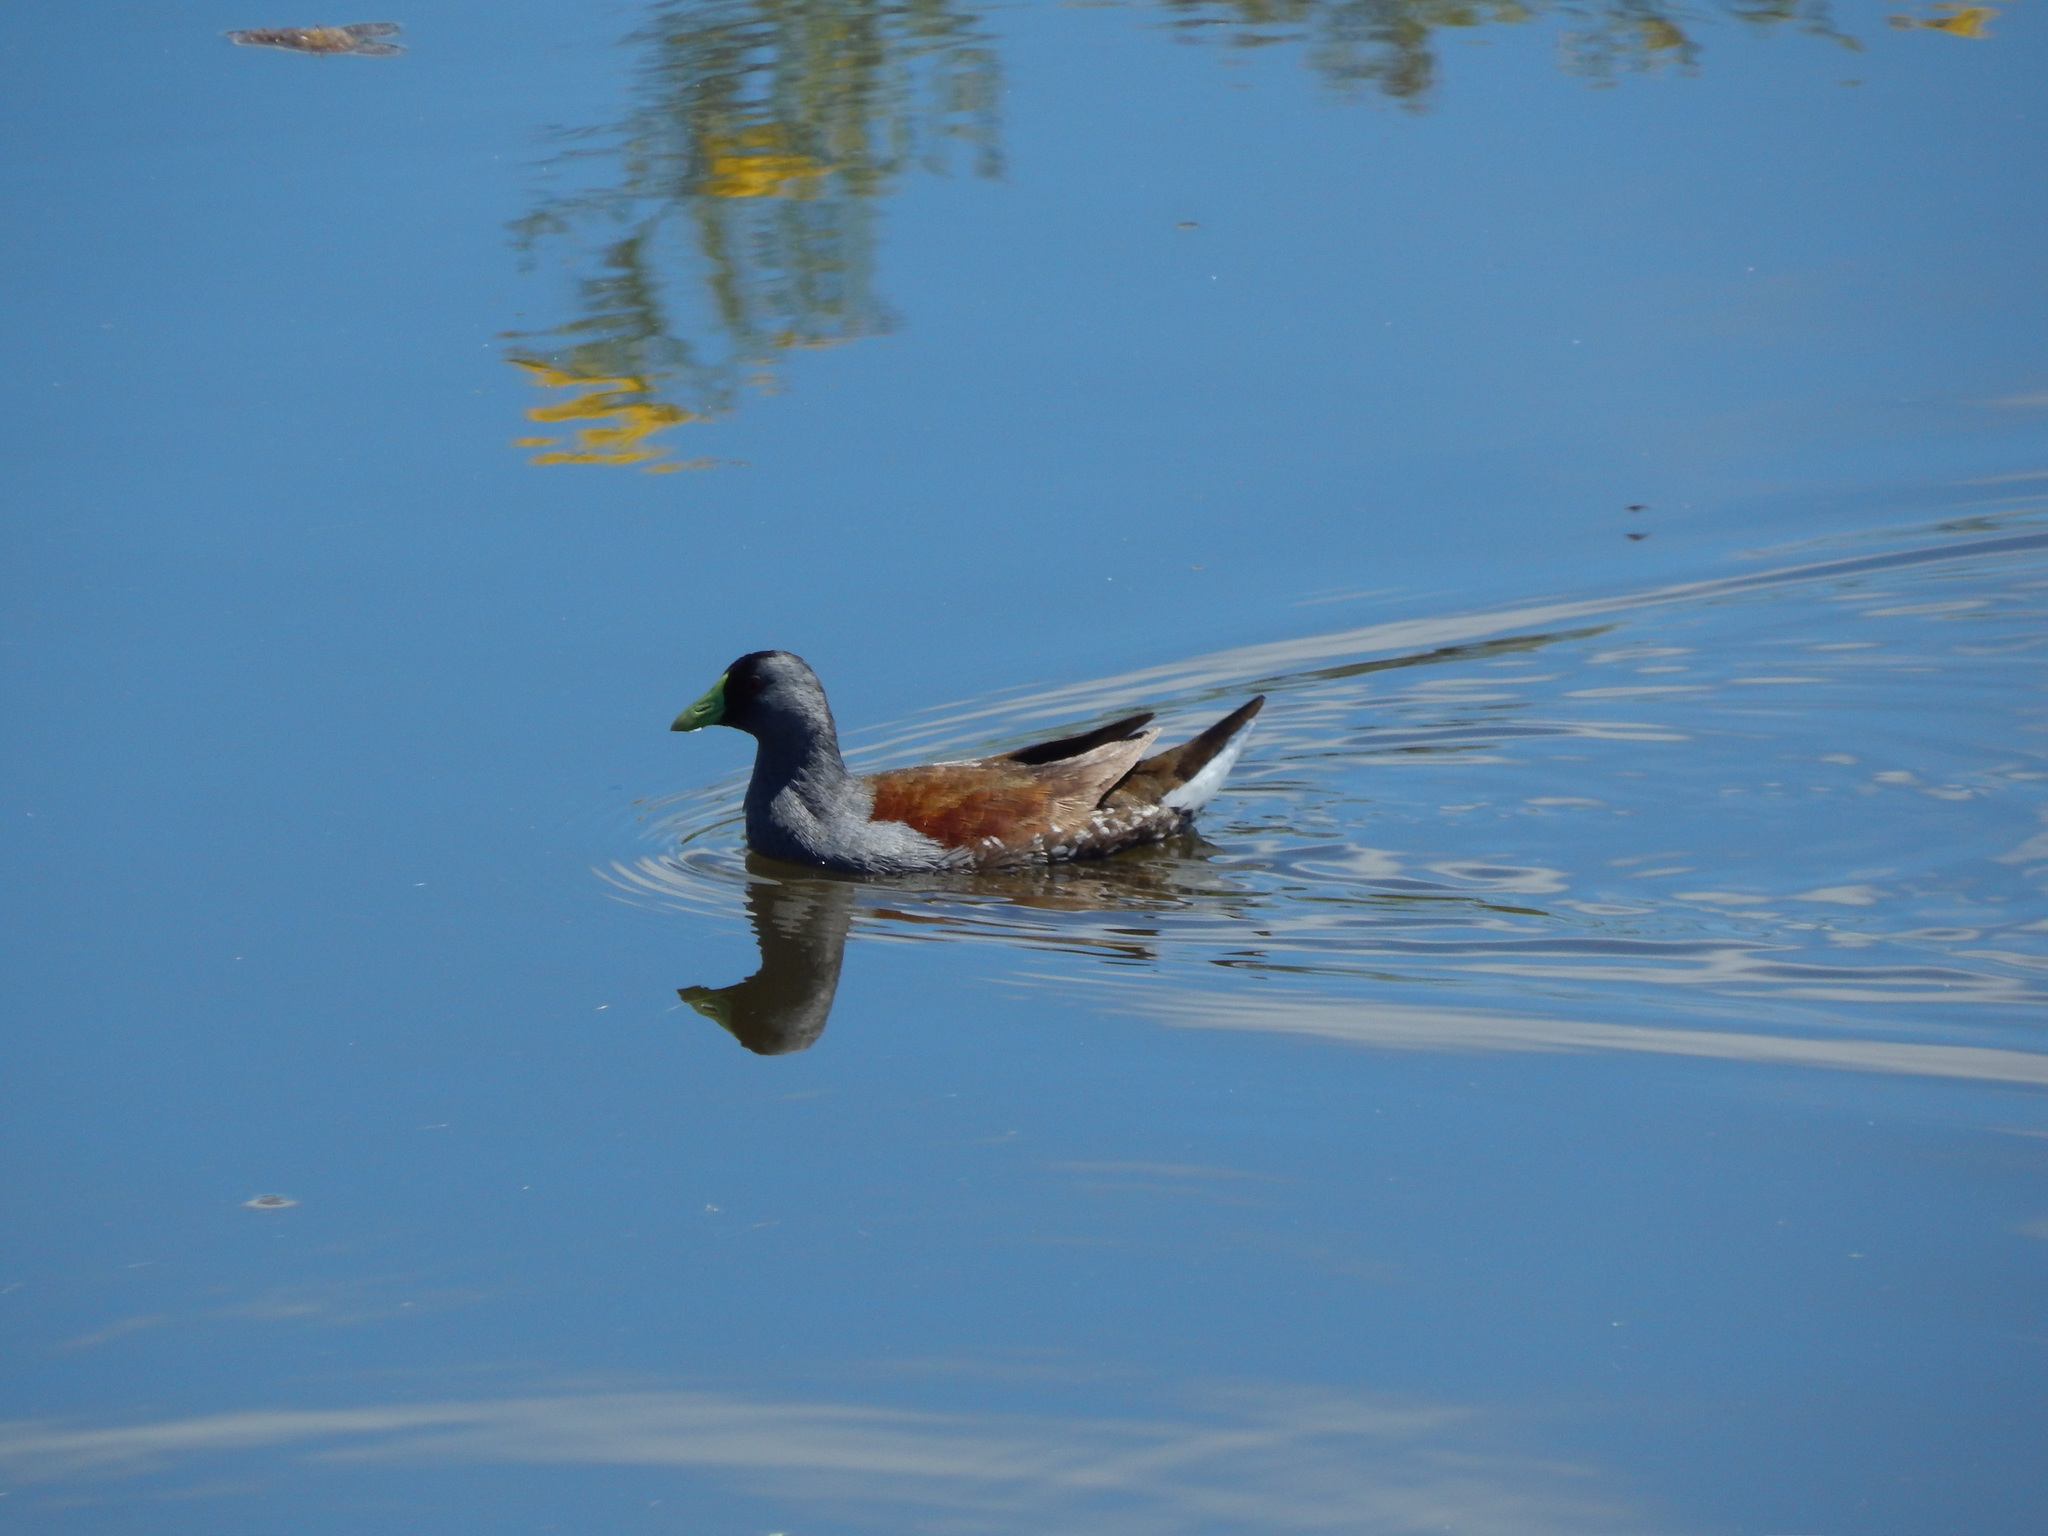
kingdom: Animalia
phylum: Chordata
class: Aves
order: Gruiformes
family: Rallidae
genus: Gallinula
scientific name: Gallinula melanops
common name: Spot-flanked gallinule
